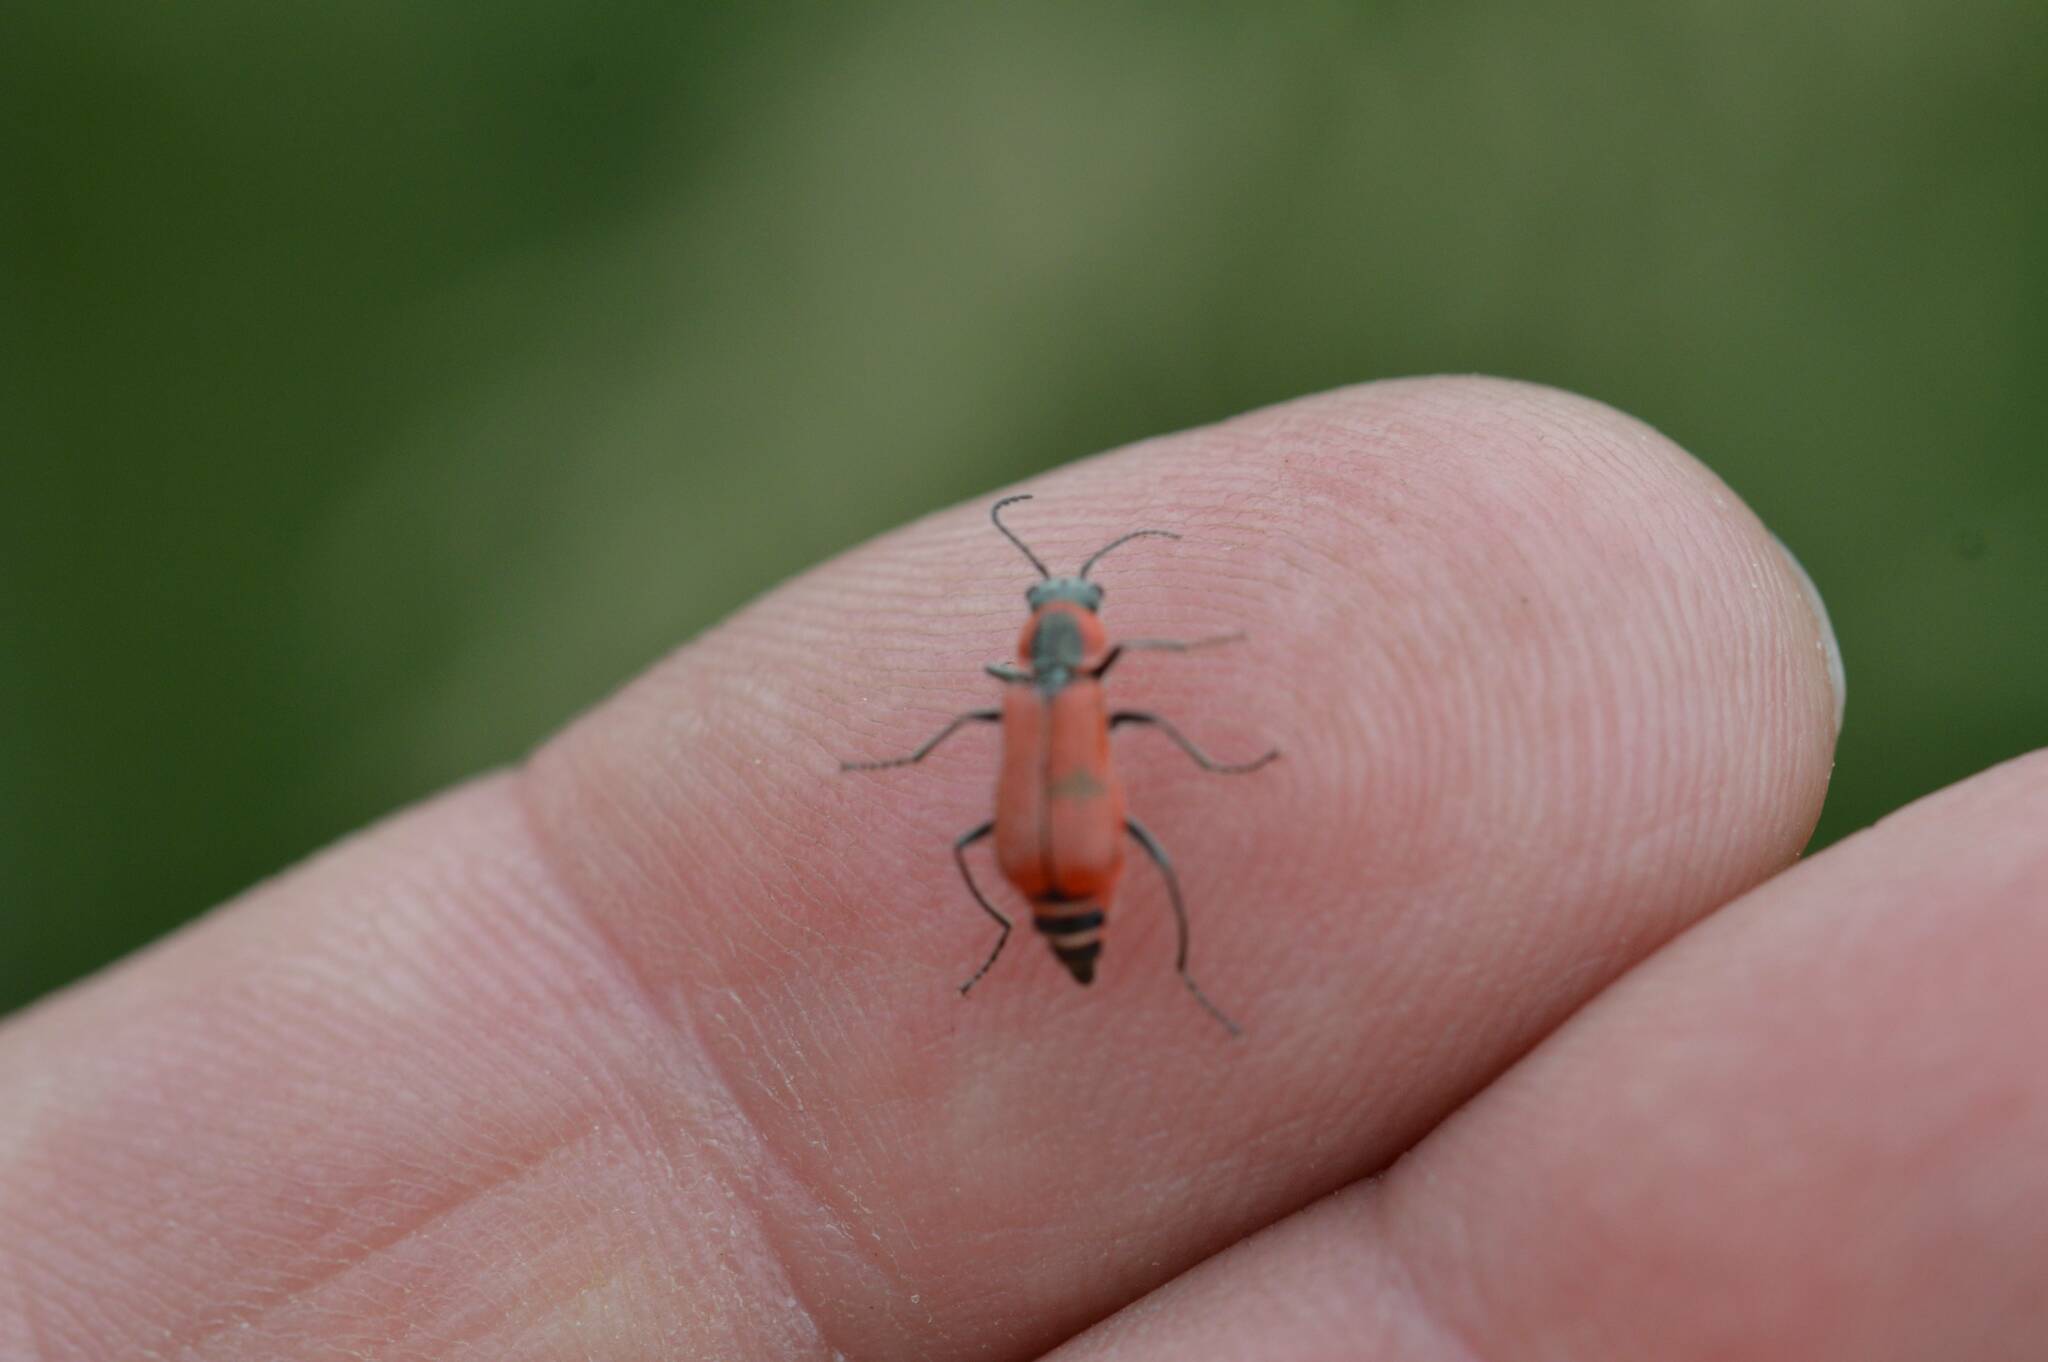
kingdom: Animalia
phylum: Arthropoda
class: Insecta
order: Coleoptera
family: Malachiidae
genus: Clanoptilus
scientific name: Clanoptilus rufus
